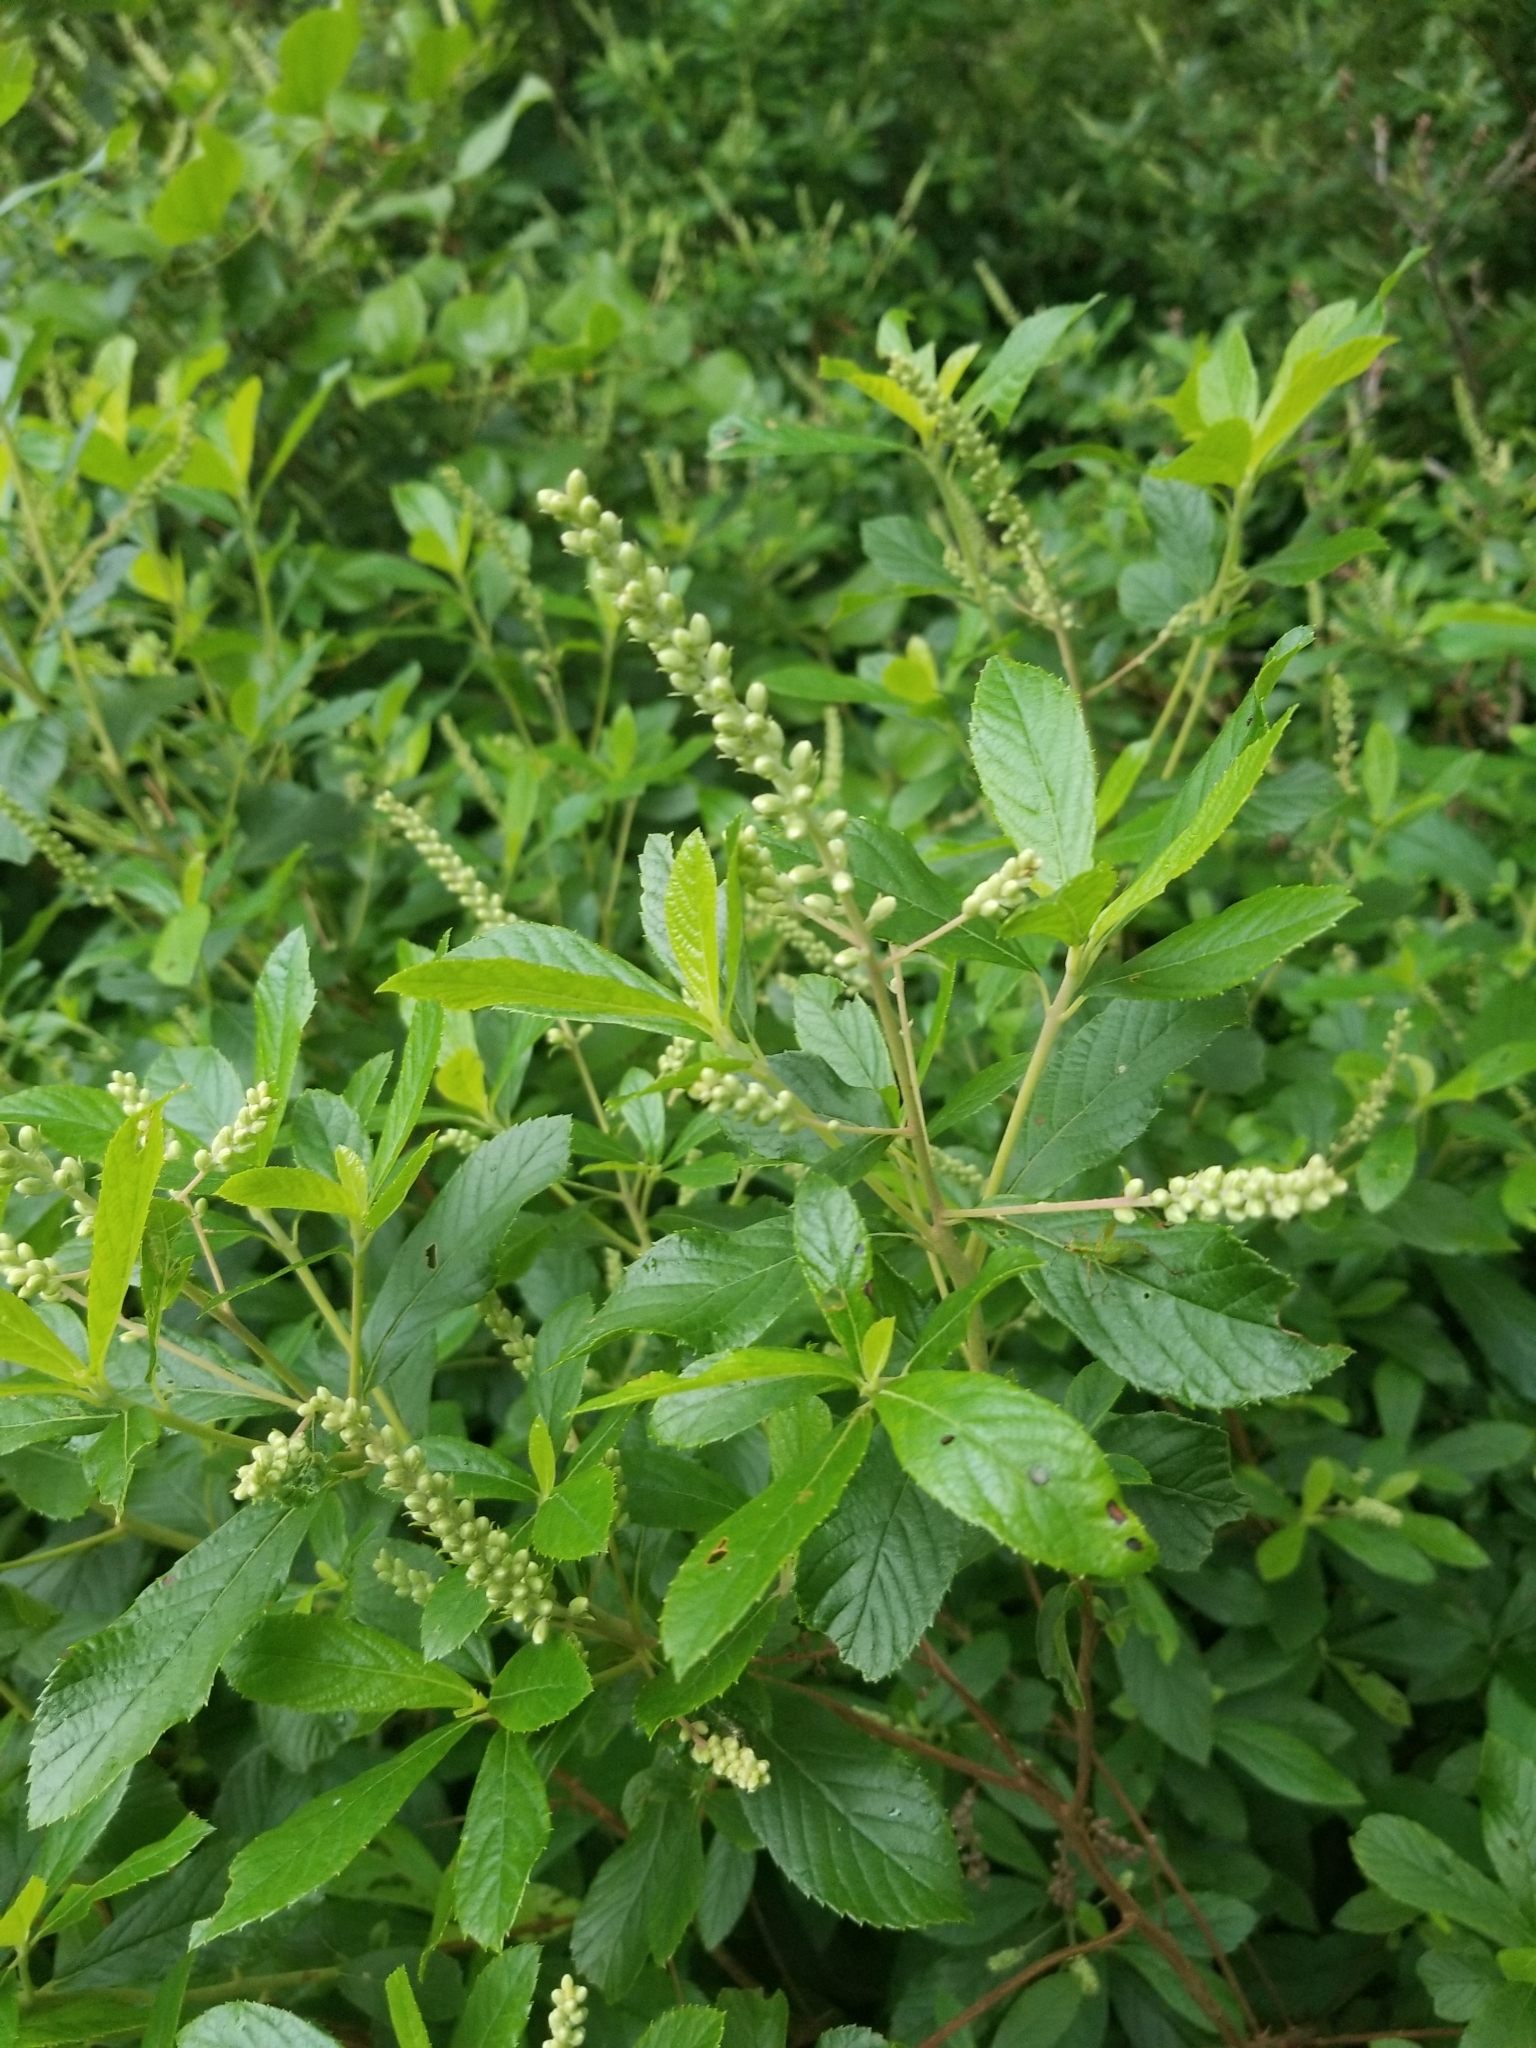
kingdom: Plantae
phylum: Tracheophyta
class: Magnoliopsida
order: Ericales
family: Clethraceae
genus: Clethra
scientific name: Clethra alnifolia
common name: Sweet pepperbush
